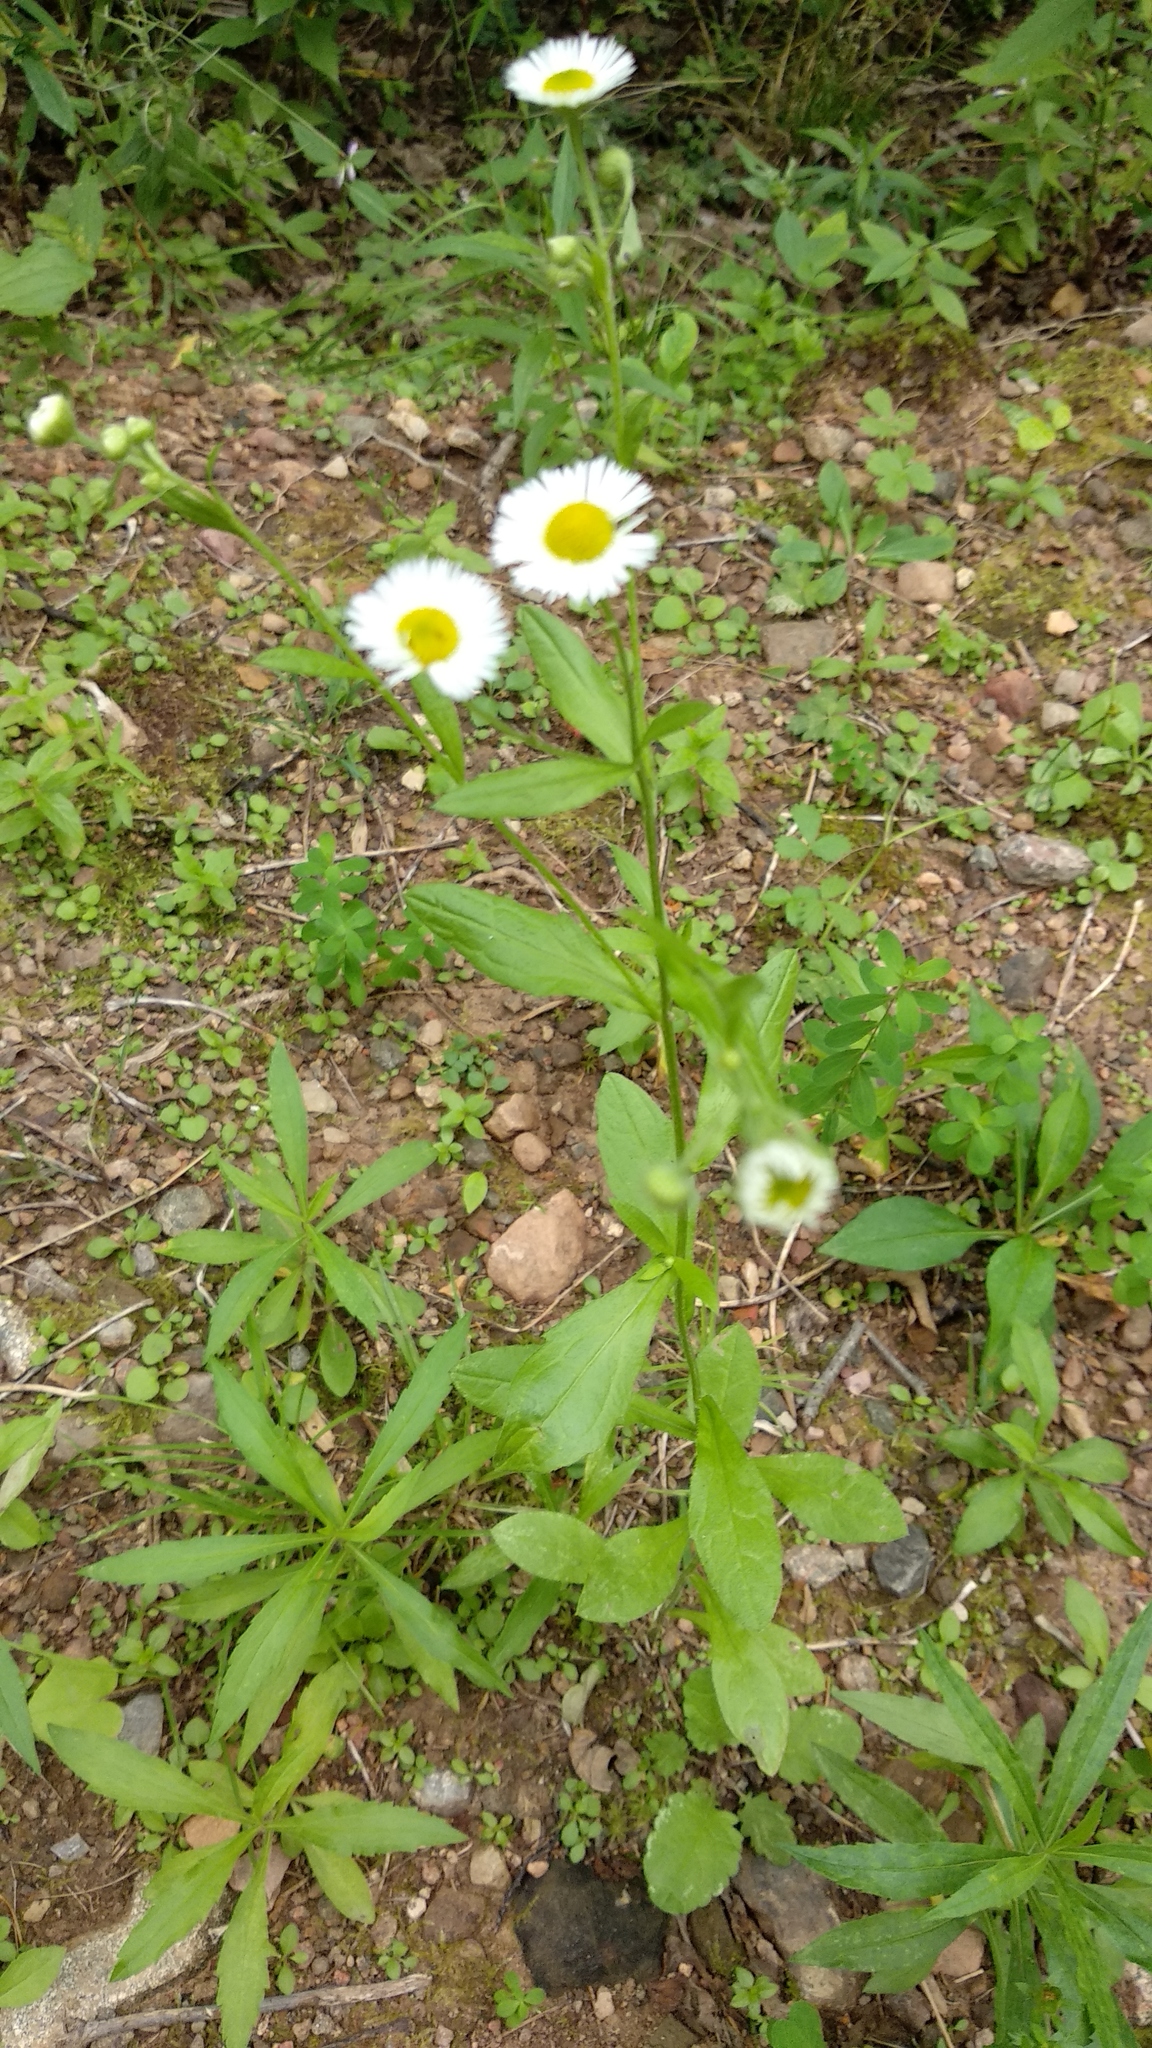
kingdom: Plantae
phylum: Tracheophyta
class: Magnoliopsida
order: Asterales
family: Asteraceae
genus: Erigeron
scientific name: Erigeron strigosus
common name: Common eastern fleabane
